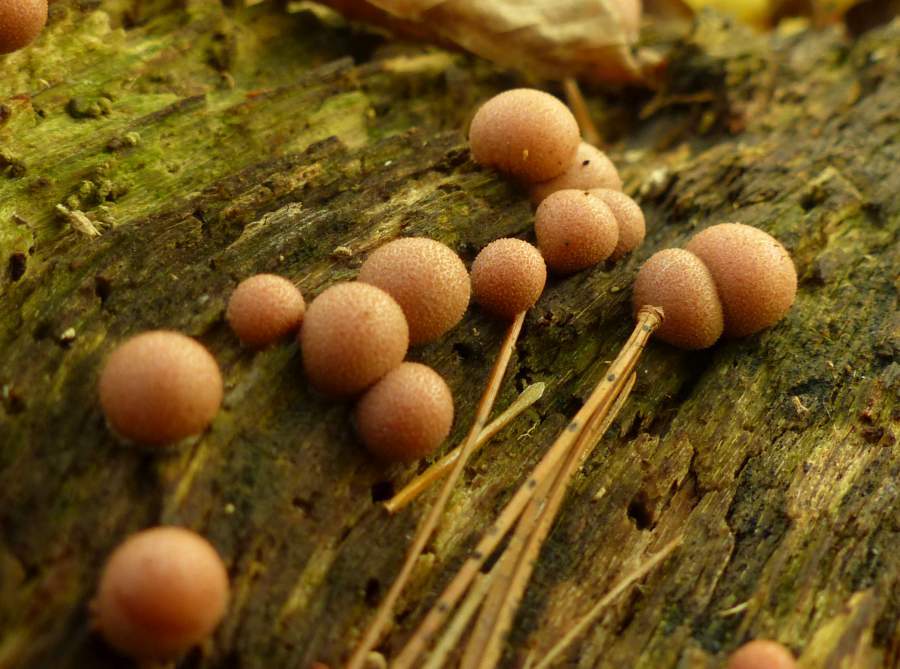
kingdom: Protozoa
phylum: Mycetozoa
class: Myxomycetes
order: Cribrariales
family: Tubiferaceae
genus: Lycogala
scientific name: Lycogala epidendrum
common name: Wolf's milk
